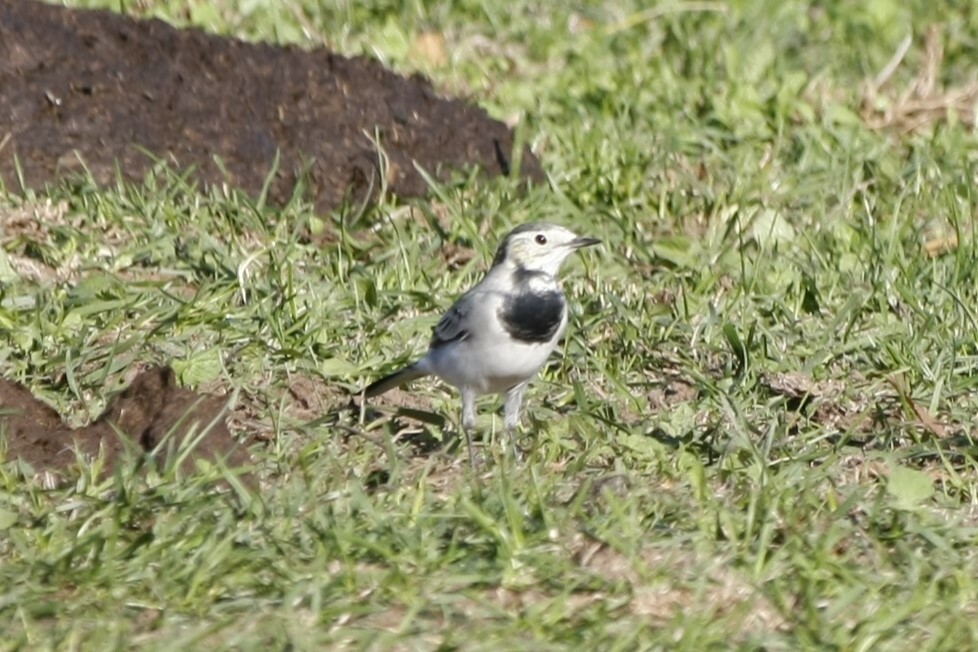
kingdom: Animalia
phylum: Chordata
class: Aves
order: Passeriformes
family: Motacillidae
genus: Motacilla
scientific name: Motacilla alba
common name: White wagtail
